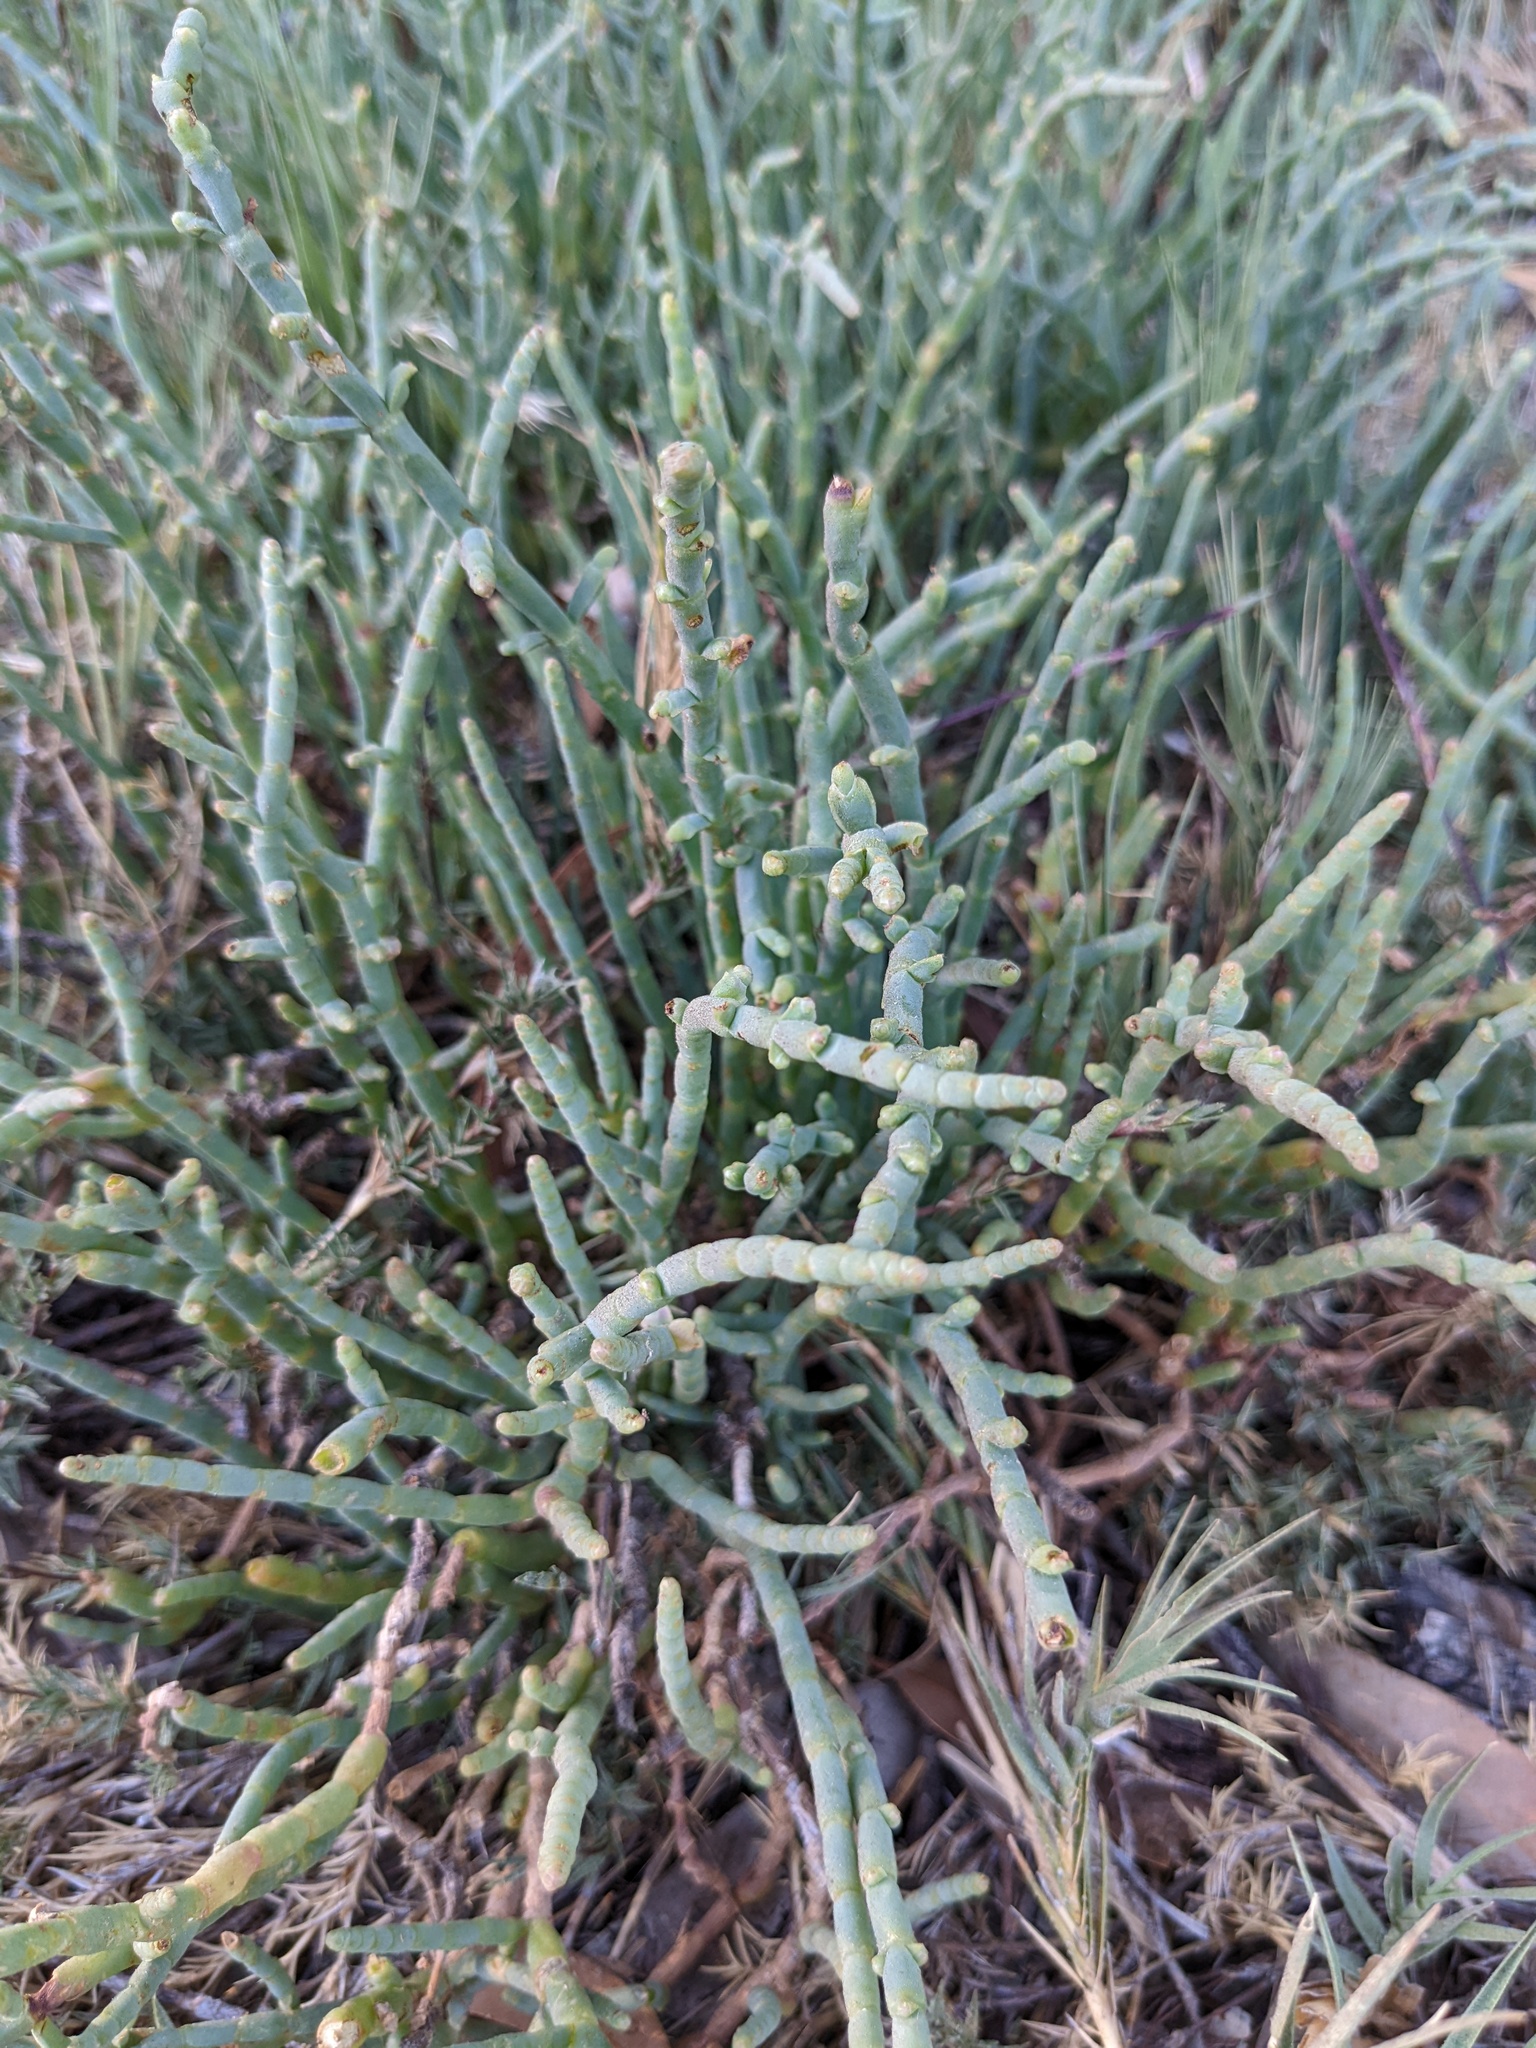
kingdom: Plantae
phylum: Tracheophyta
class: Magnoliopsida
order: Caryophyllales
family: Amaranthaceae
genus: Salicornia
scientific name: Salicornia pacifica
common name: Pacific glasswort
